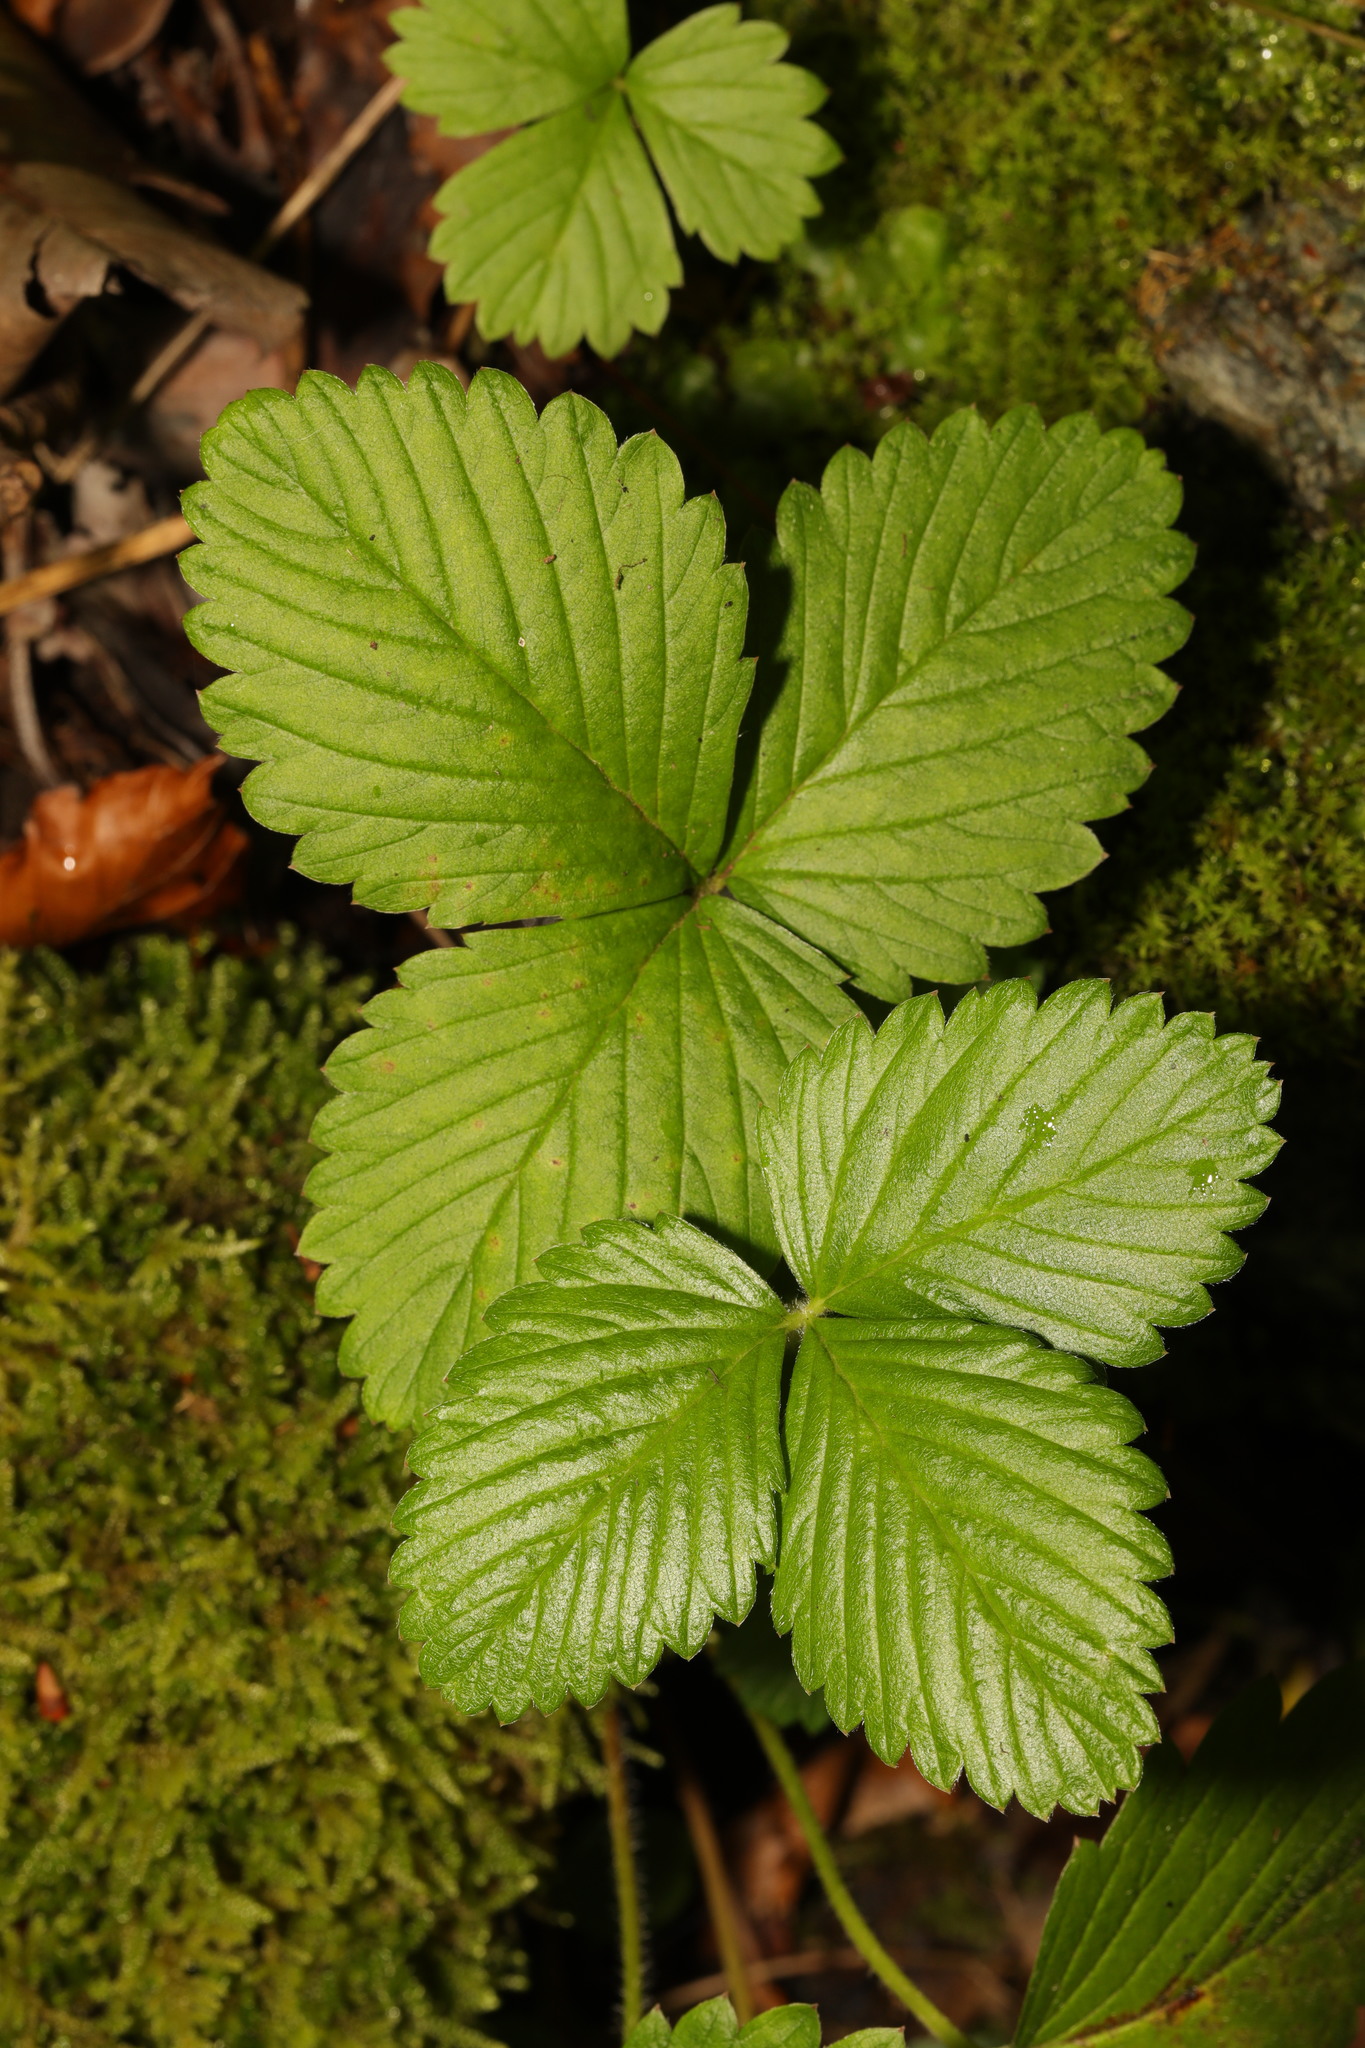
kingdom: Plantae
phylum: Tracheophyta
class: Magnoliopsida
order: Rosales
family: Rosaceae
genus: Fragaria
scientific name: Fragaria vesca
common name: Wild strawberry
